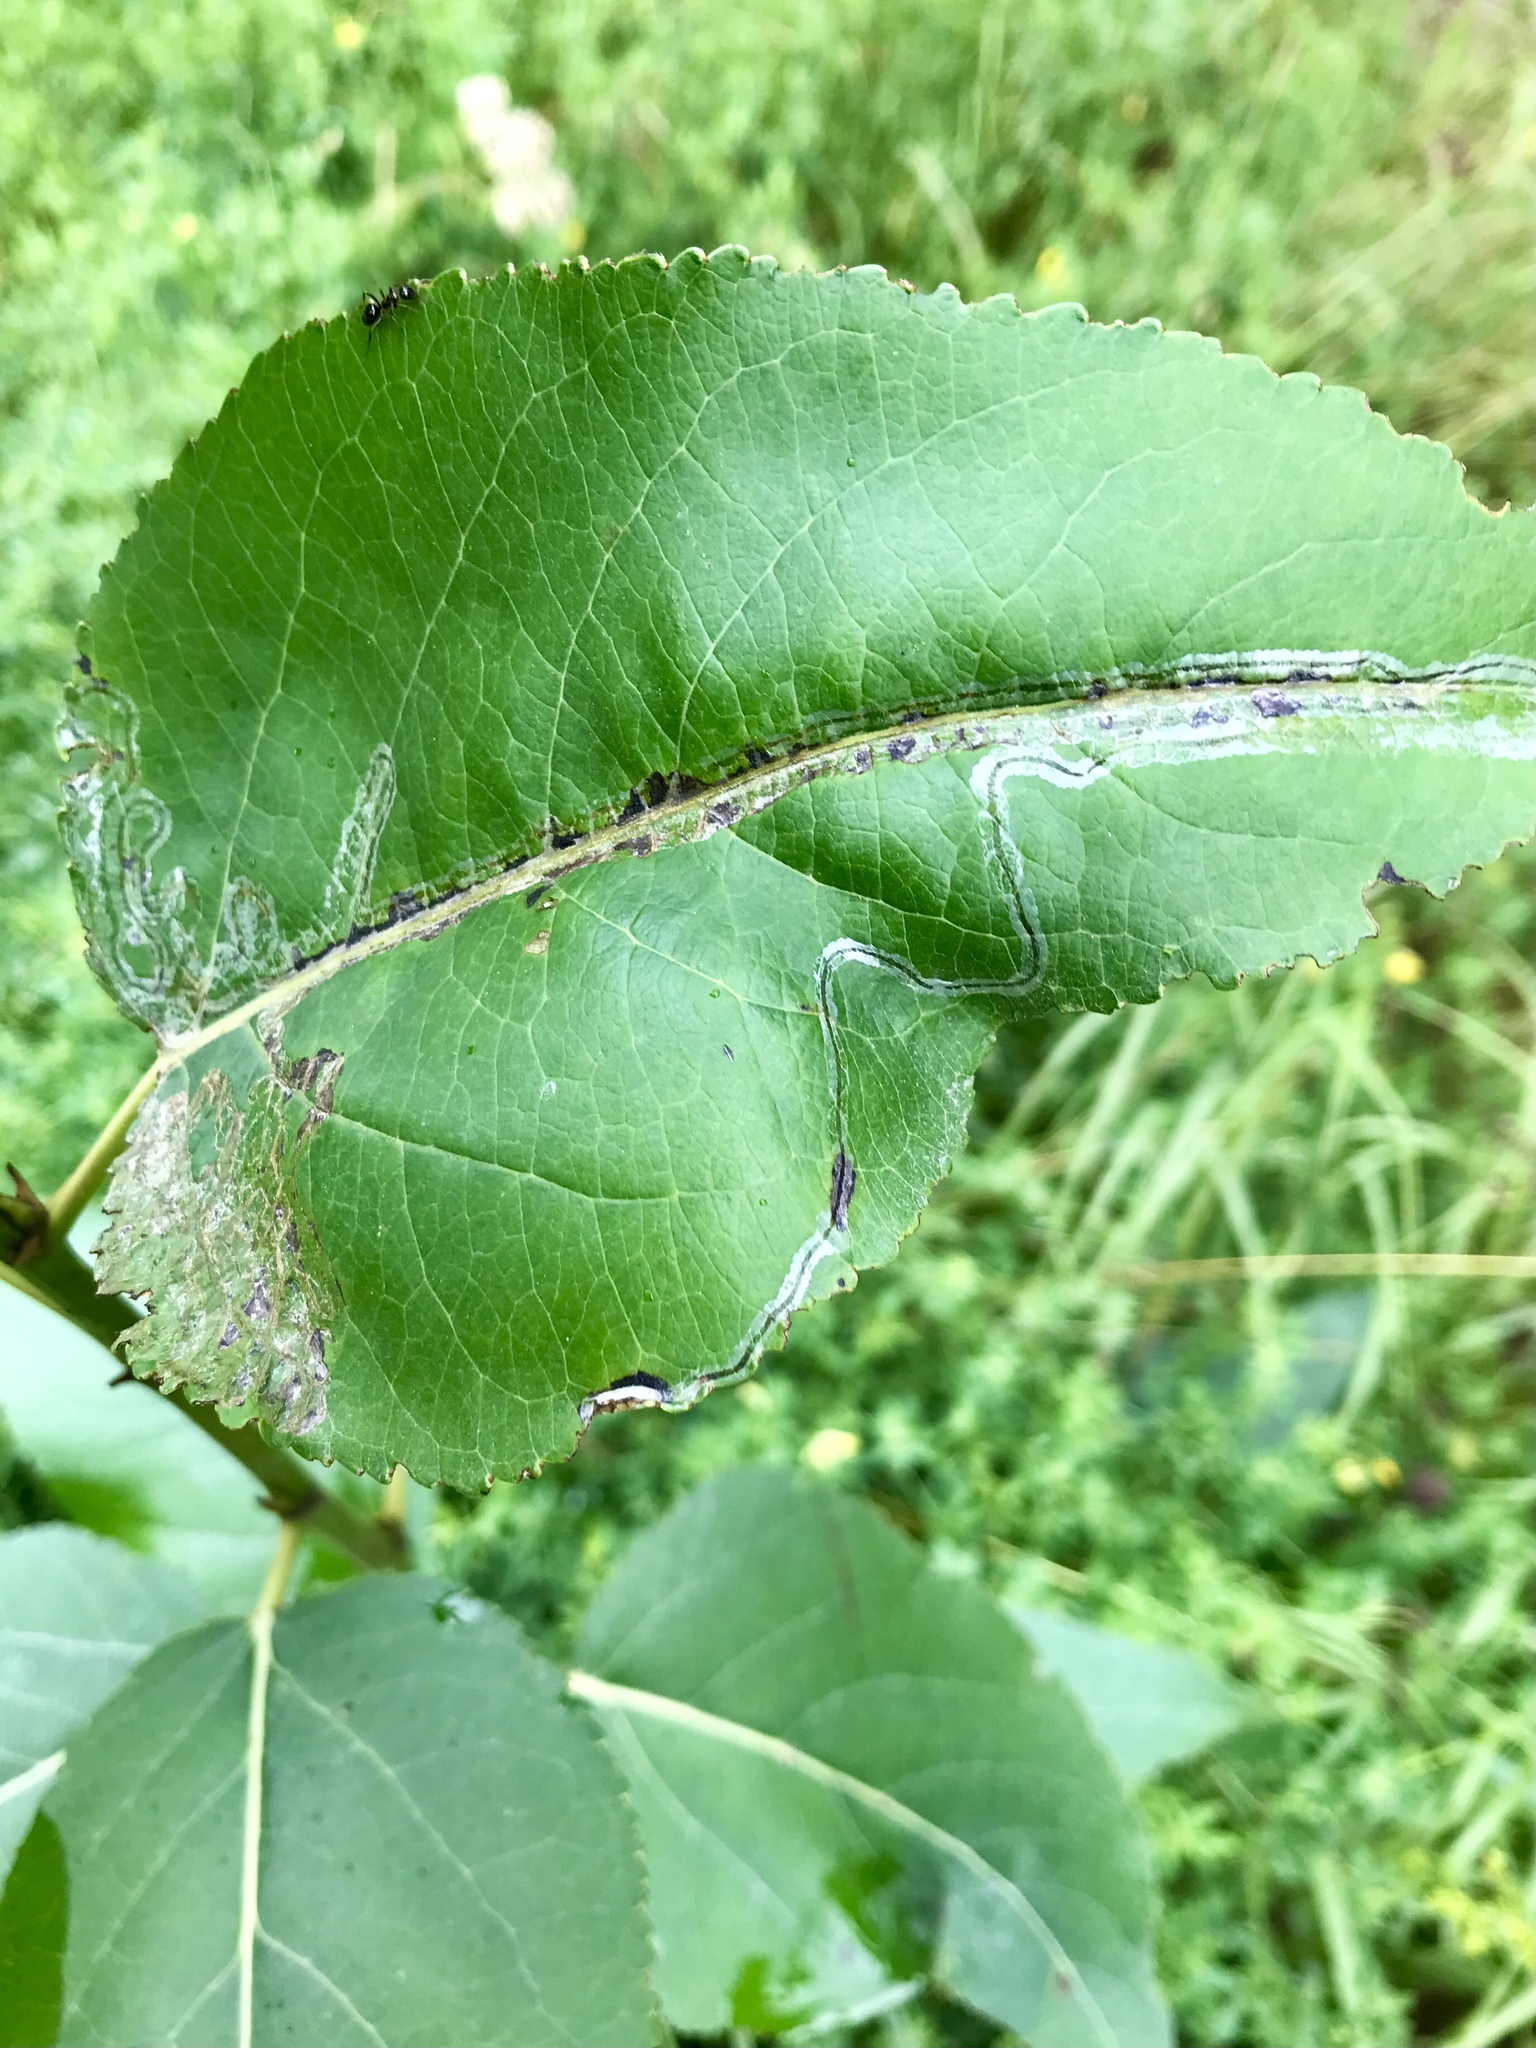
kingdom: Animalia
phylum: Arthropoda
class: Insecta
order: Lepidoptera
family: Gracillariidae
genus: Phyllocnistis
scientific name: Phyllocnistis populiella
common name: Aspen serpentine leafminer moth
